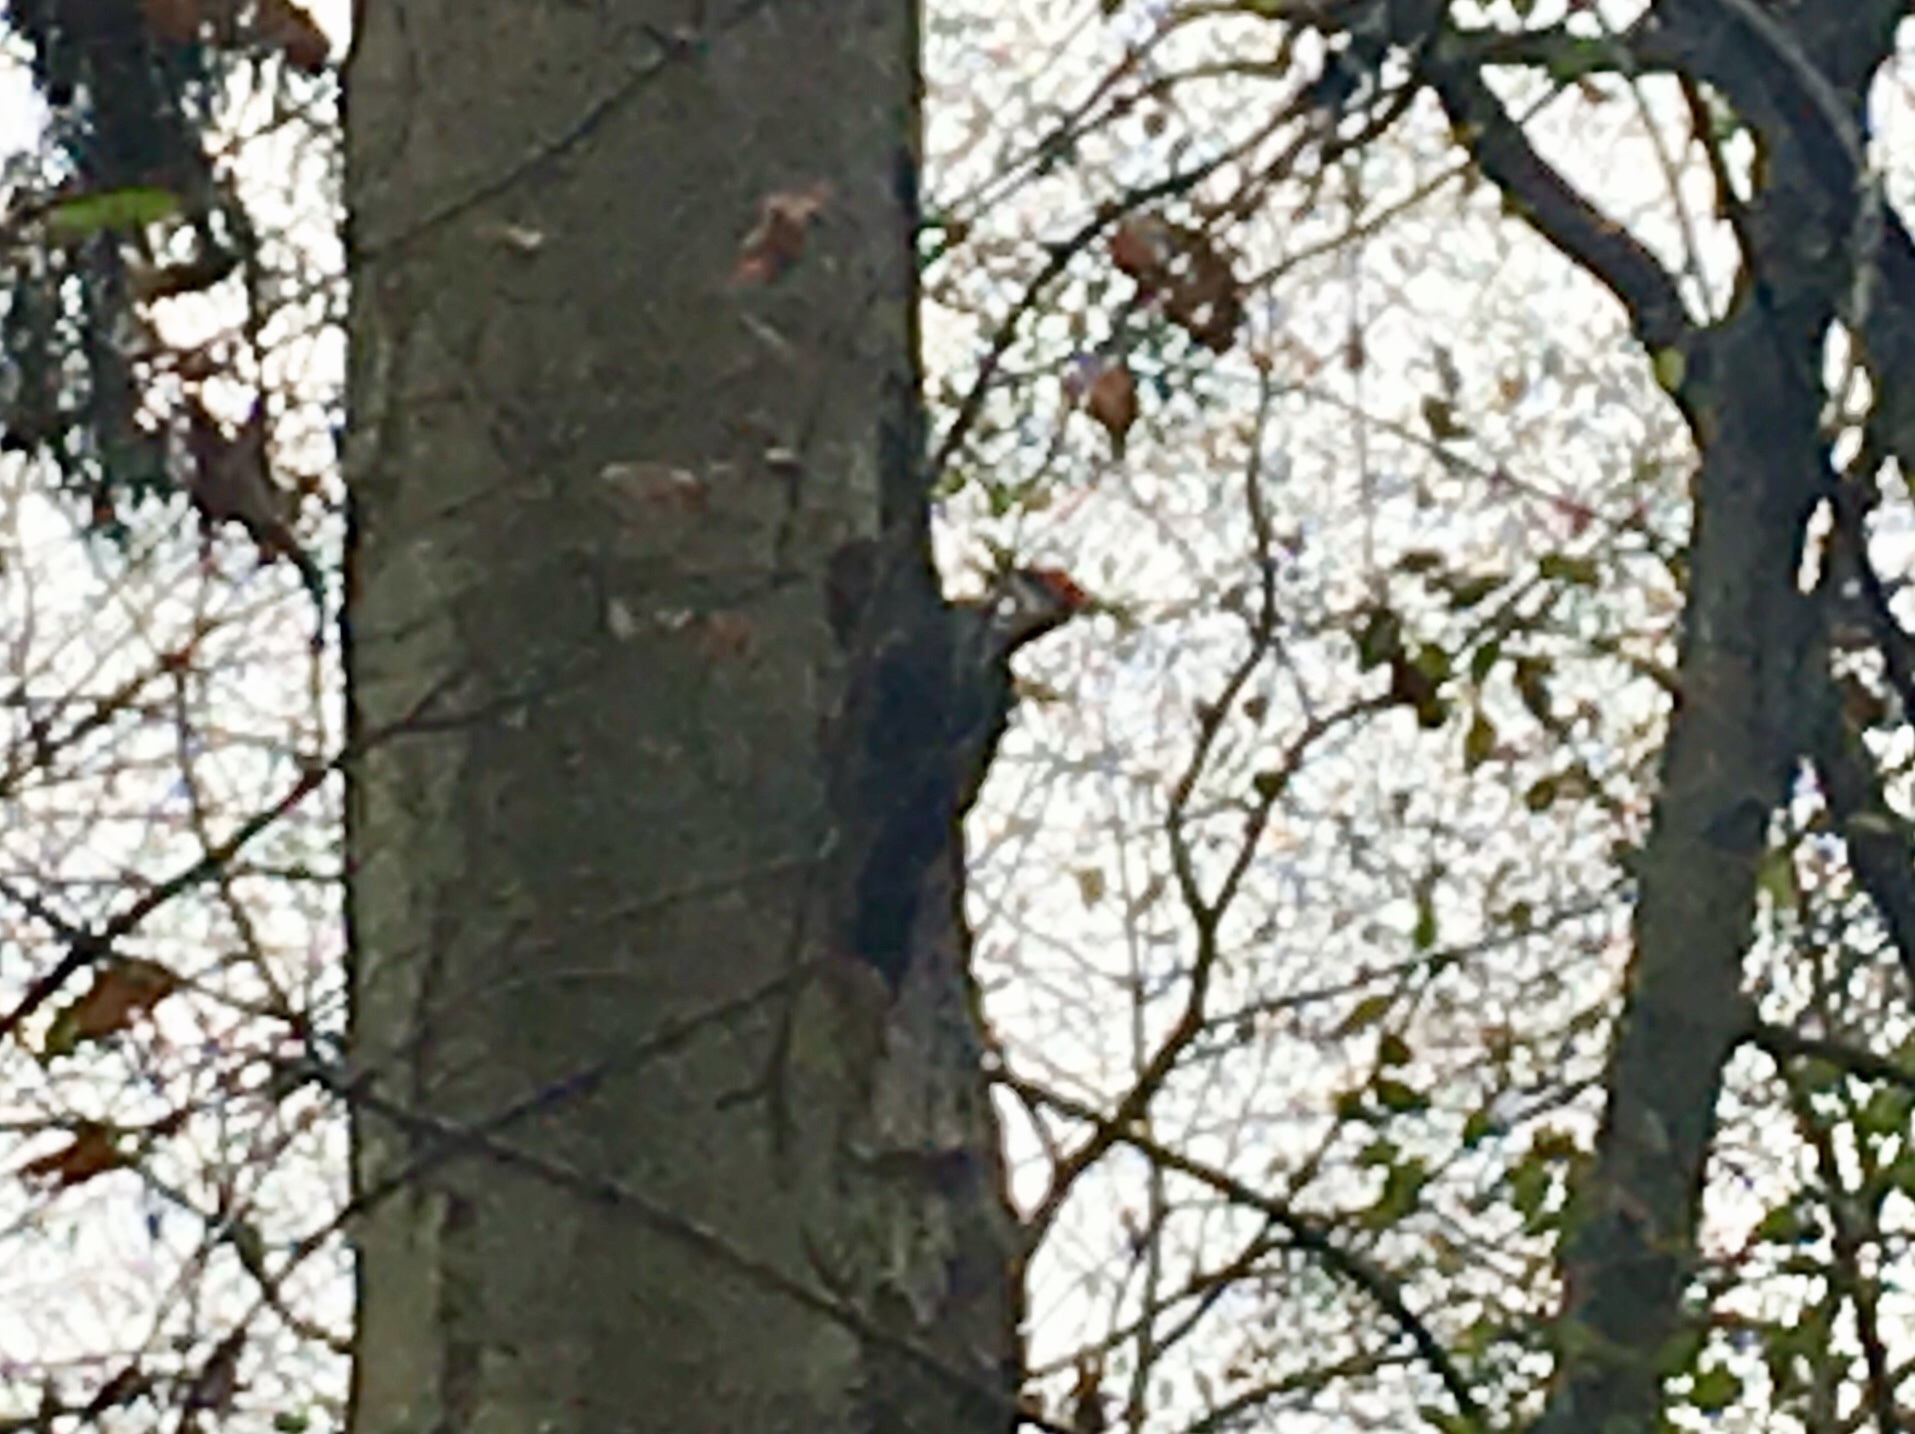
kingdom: Animalia
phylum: Chordata
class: Aves
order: Piciformes
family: Picidae
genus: Dryocopus
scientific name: Dryocopus pileatus
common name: Pileated woodpecker
